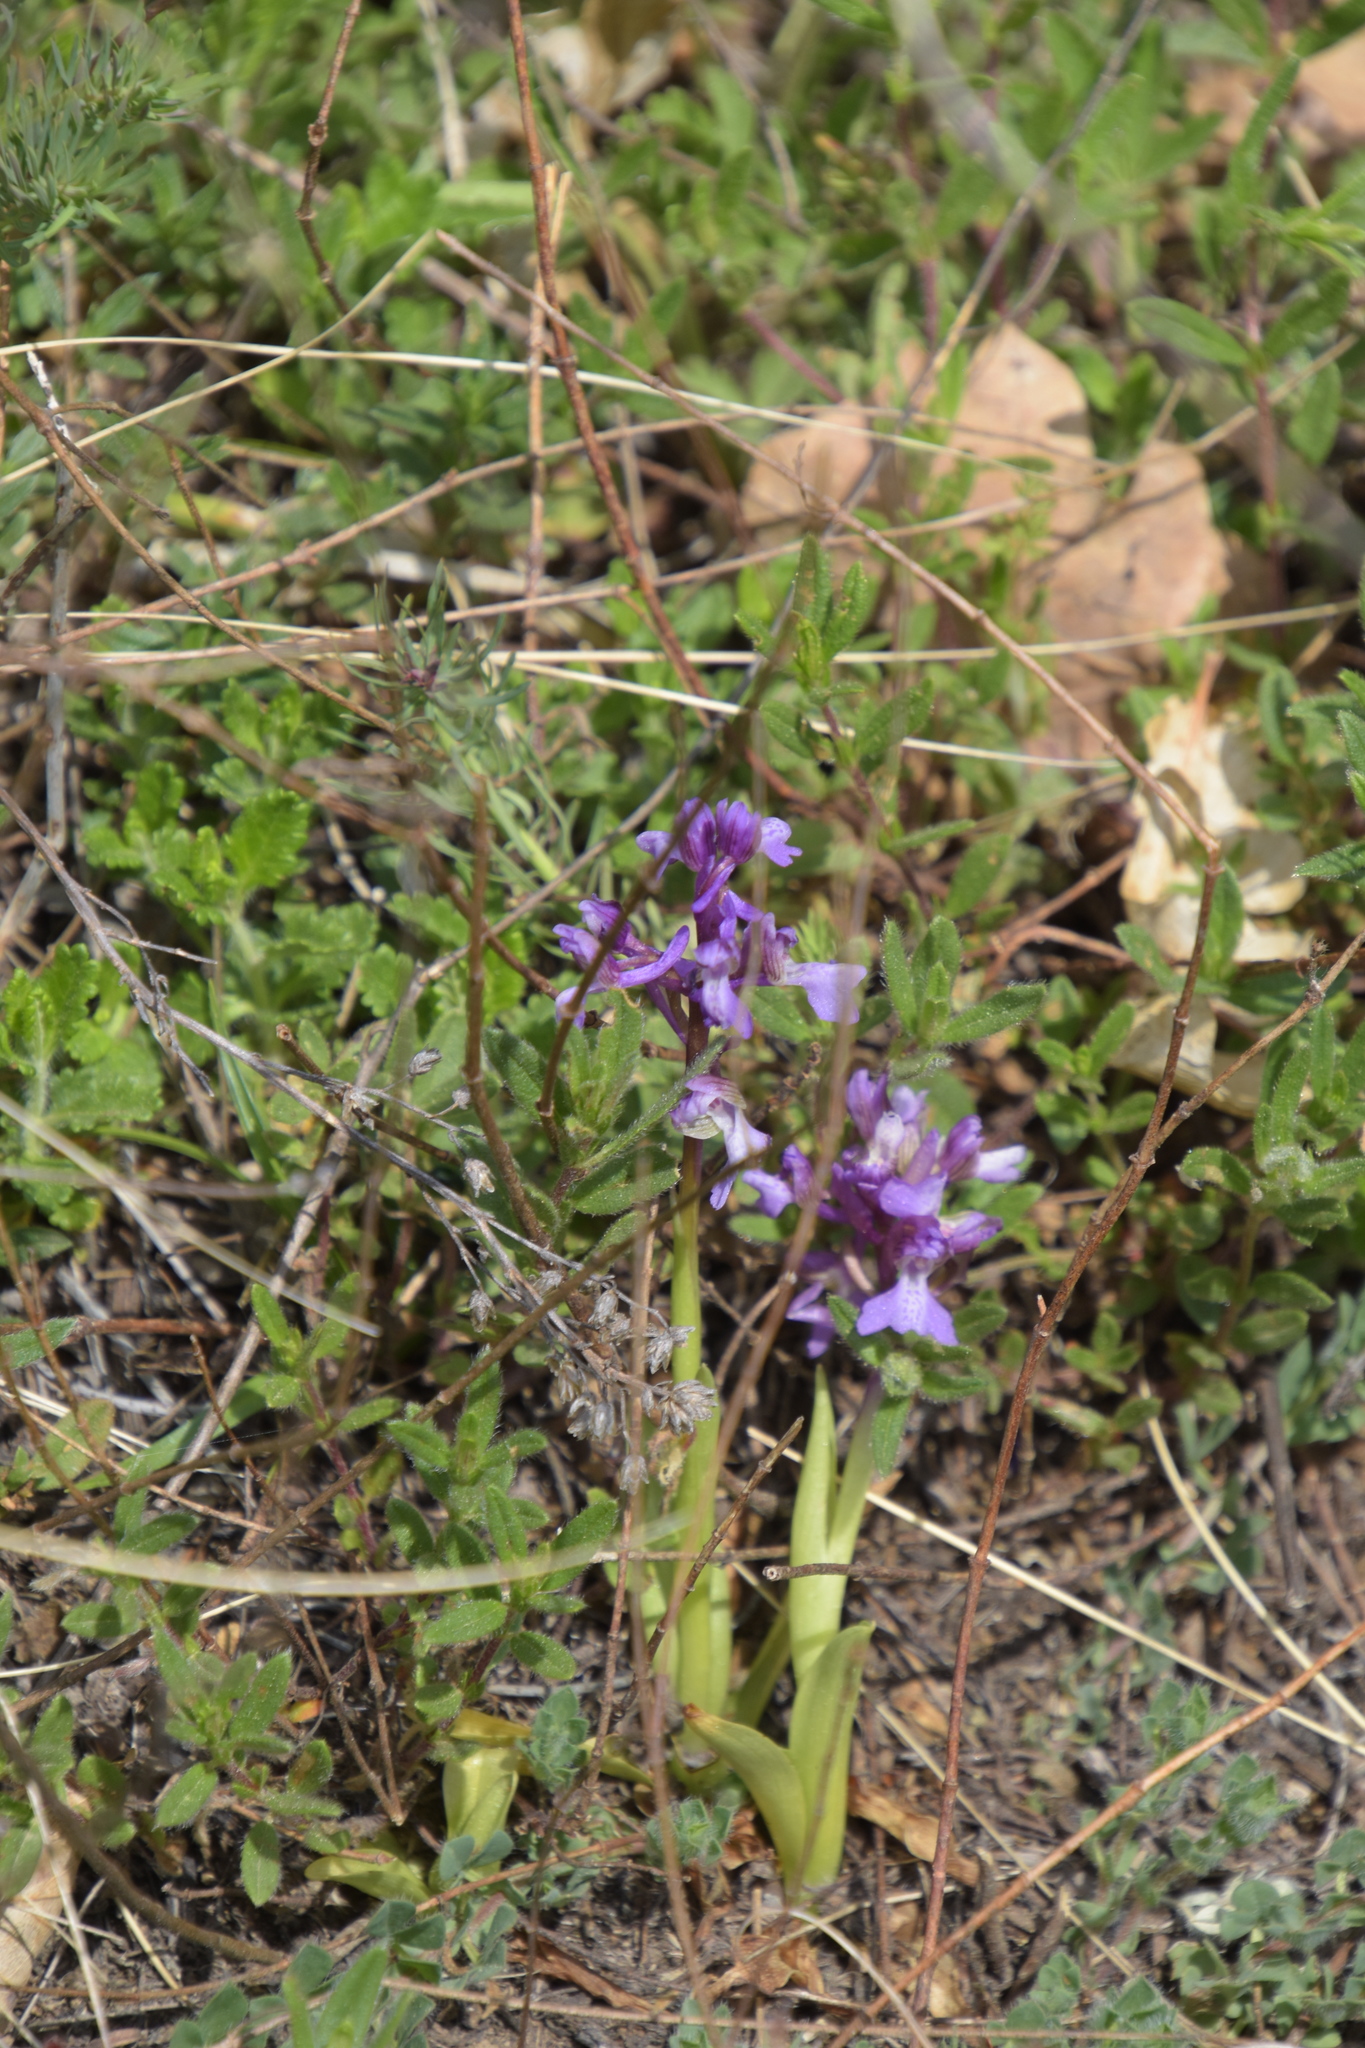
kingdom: Plantae
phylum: Tracheophyta
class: Liliopsida
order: Asparagales
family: Orchidaceae
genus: Anacamptis
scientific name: Anacamptis morio
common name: Green-winged orchid
